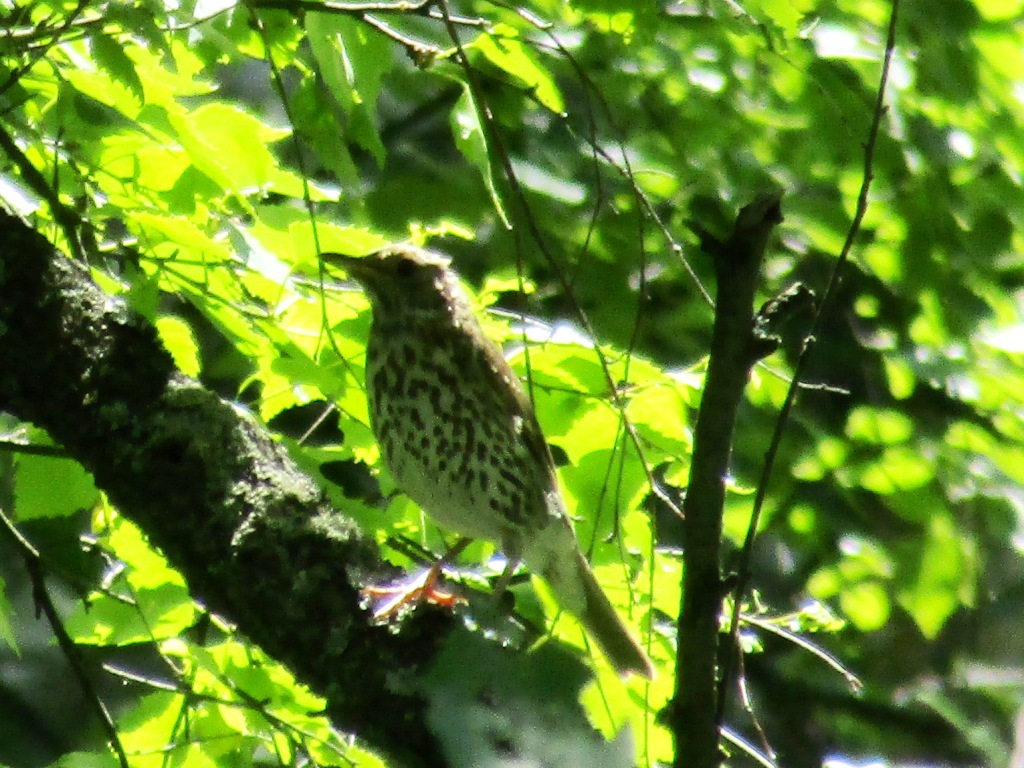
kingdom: Animalia
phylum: Chordata
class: Aves
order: Passeriformes
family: Turdidae
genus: Turdus
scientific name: Turdus philomelos
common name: Song thrush
